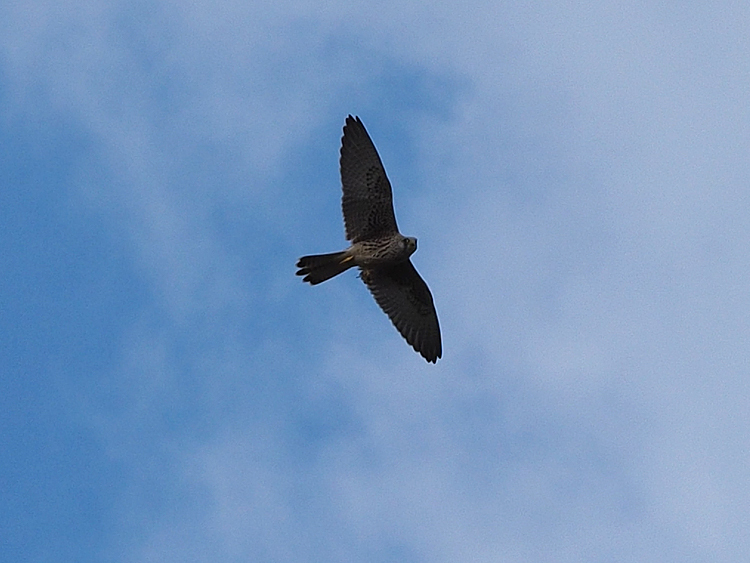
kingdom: Animalia
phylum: Chordata
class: Aves
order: Falconiformes
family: Falconidae
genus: Falco
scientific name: Falco tinnunculus
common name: Common kestrel
